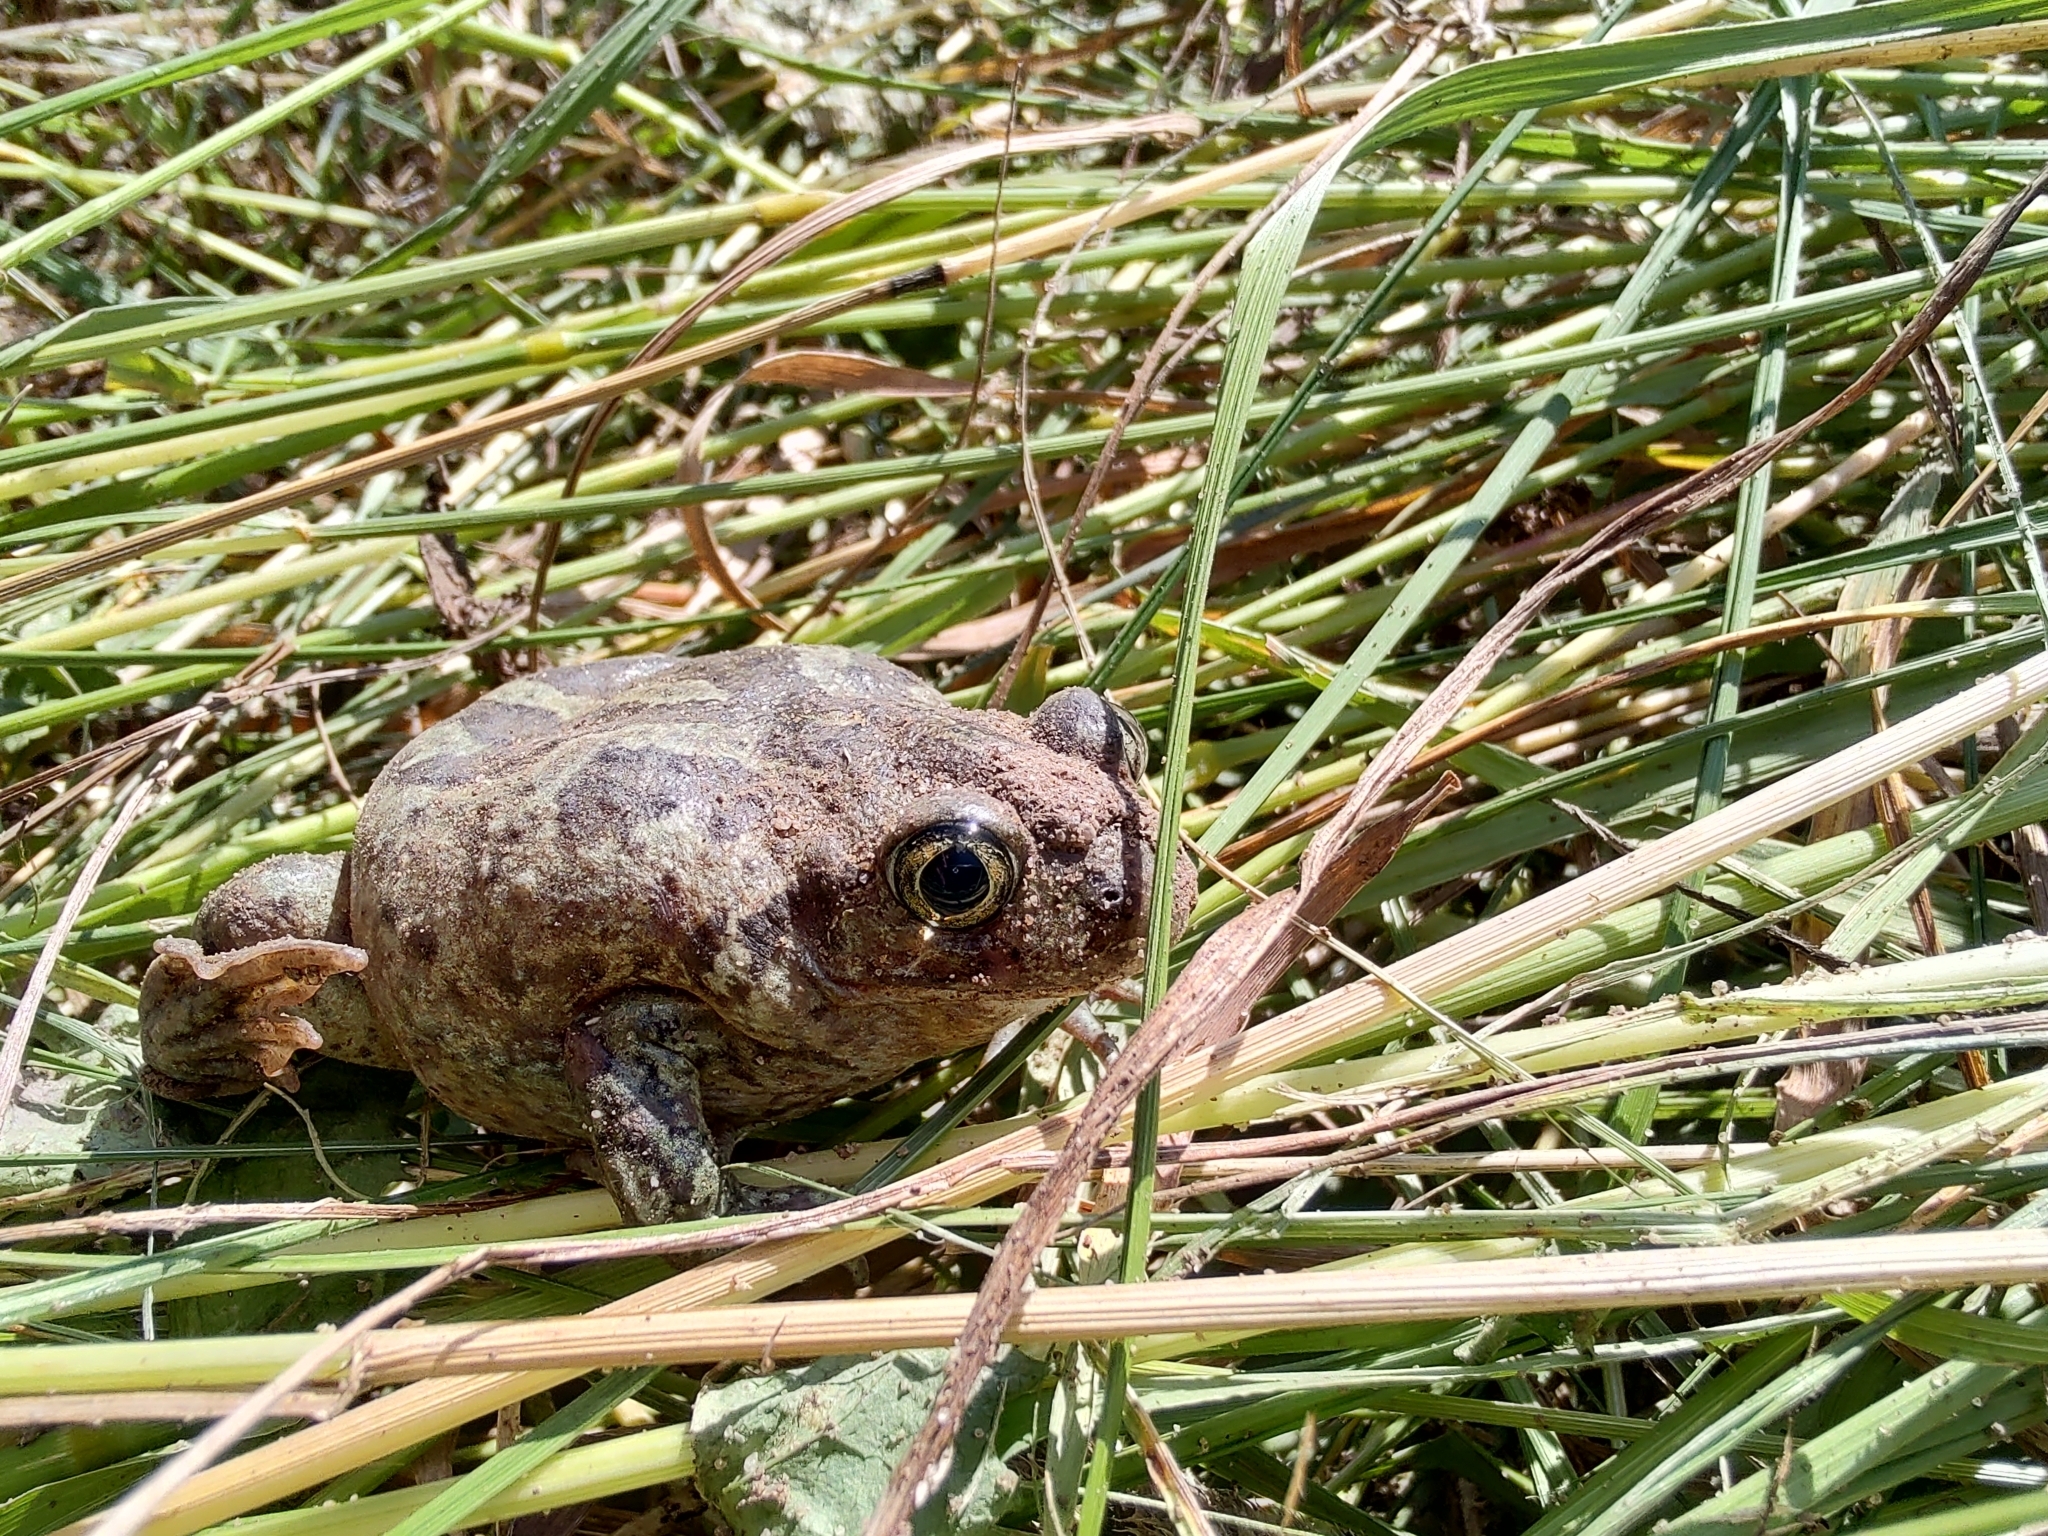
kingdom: Animalia
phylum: Chordata
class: Amphibia
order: Anura
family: Pelobatidae
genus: Pelobates
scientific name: Pelobates vespertinus
